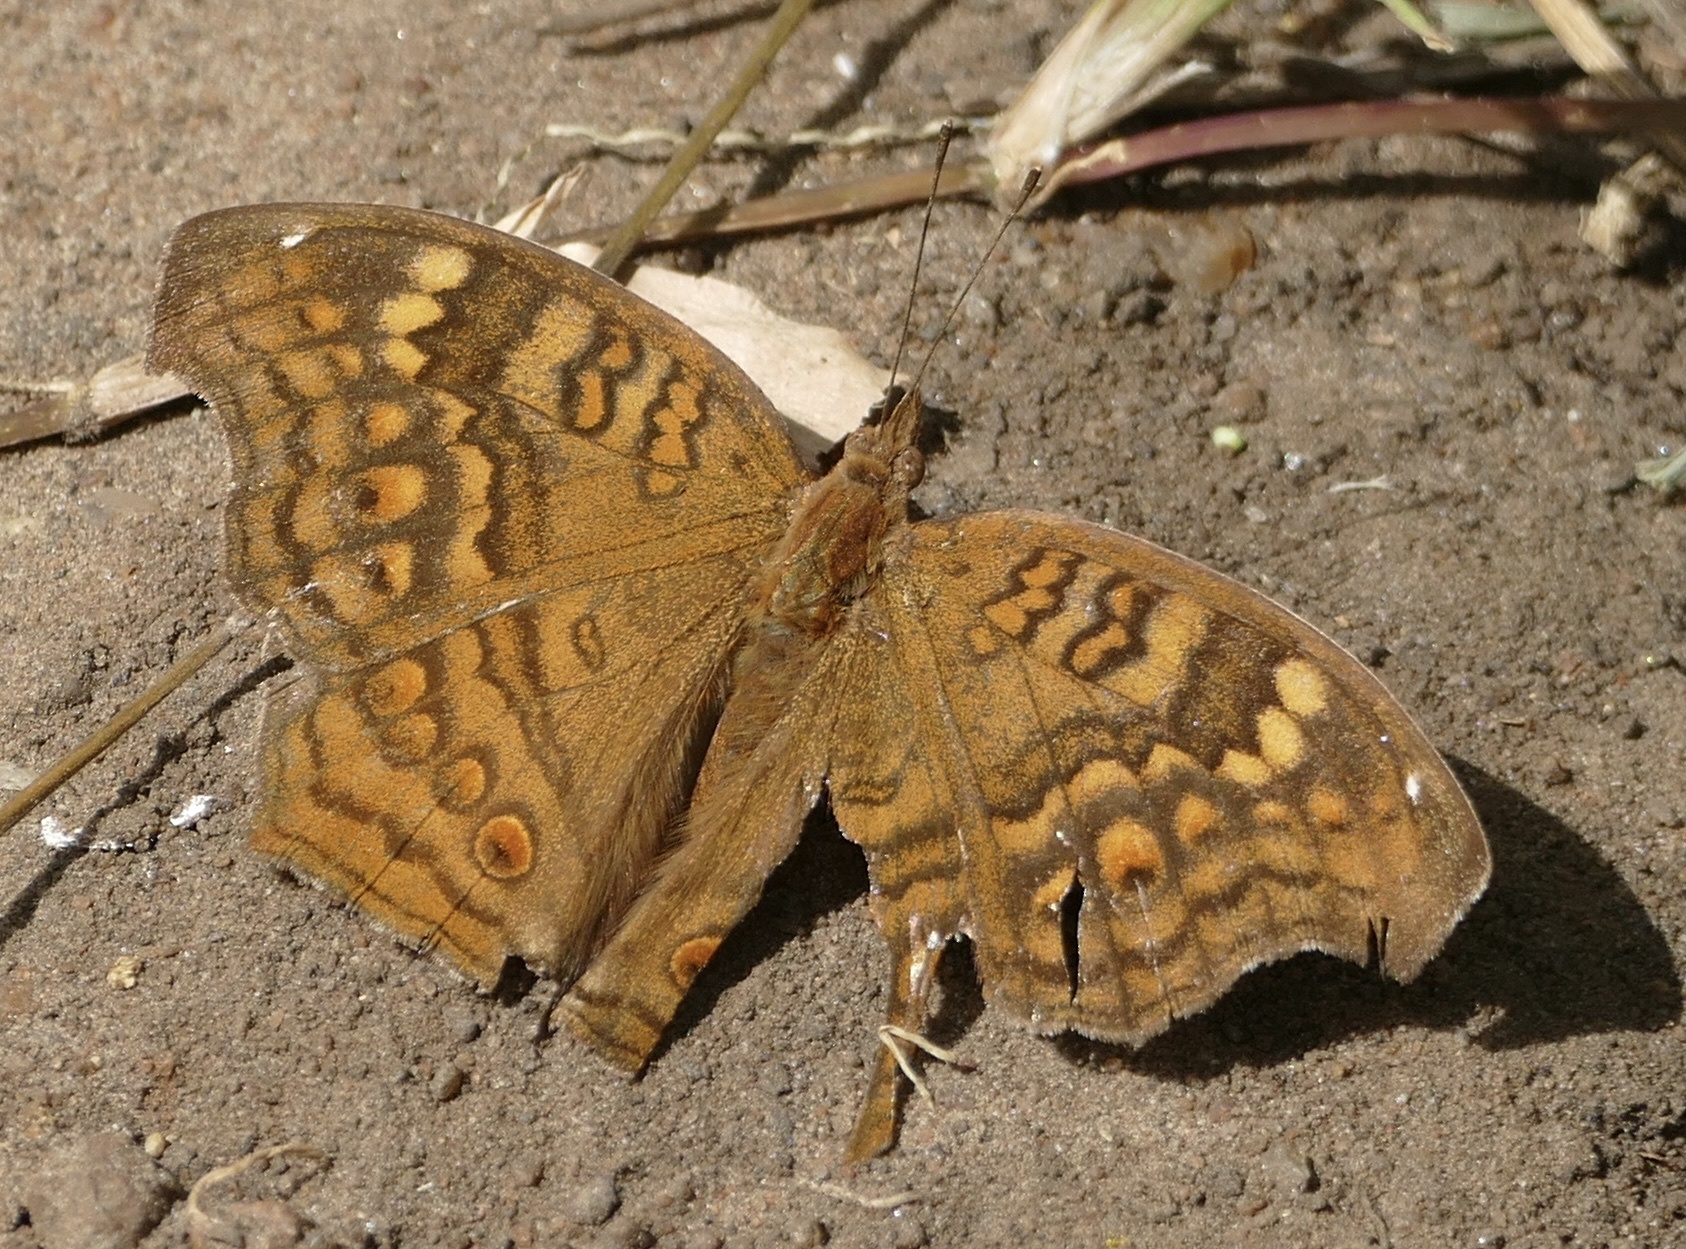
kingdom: Animalia
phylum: Arthropoda
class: Insecta
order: Lepidoptera
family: Nymphalidae
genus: Junonia
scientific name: Junonia chorimene
